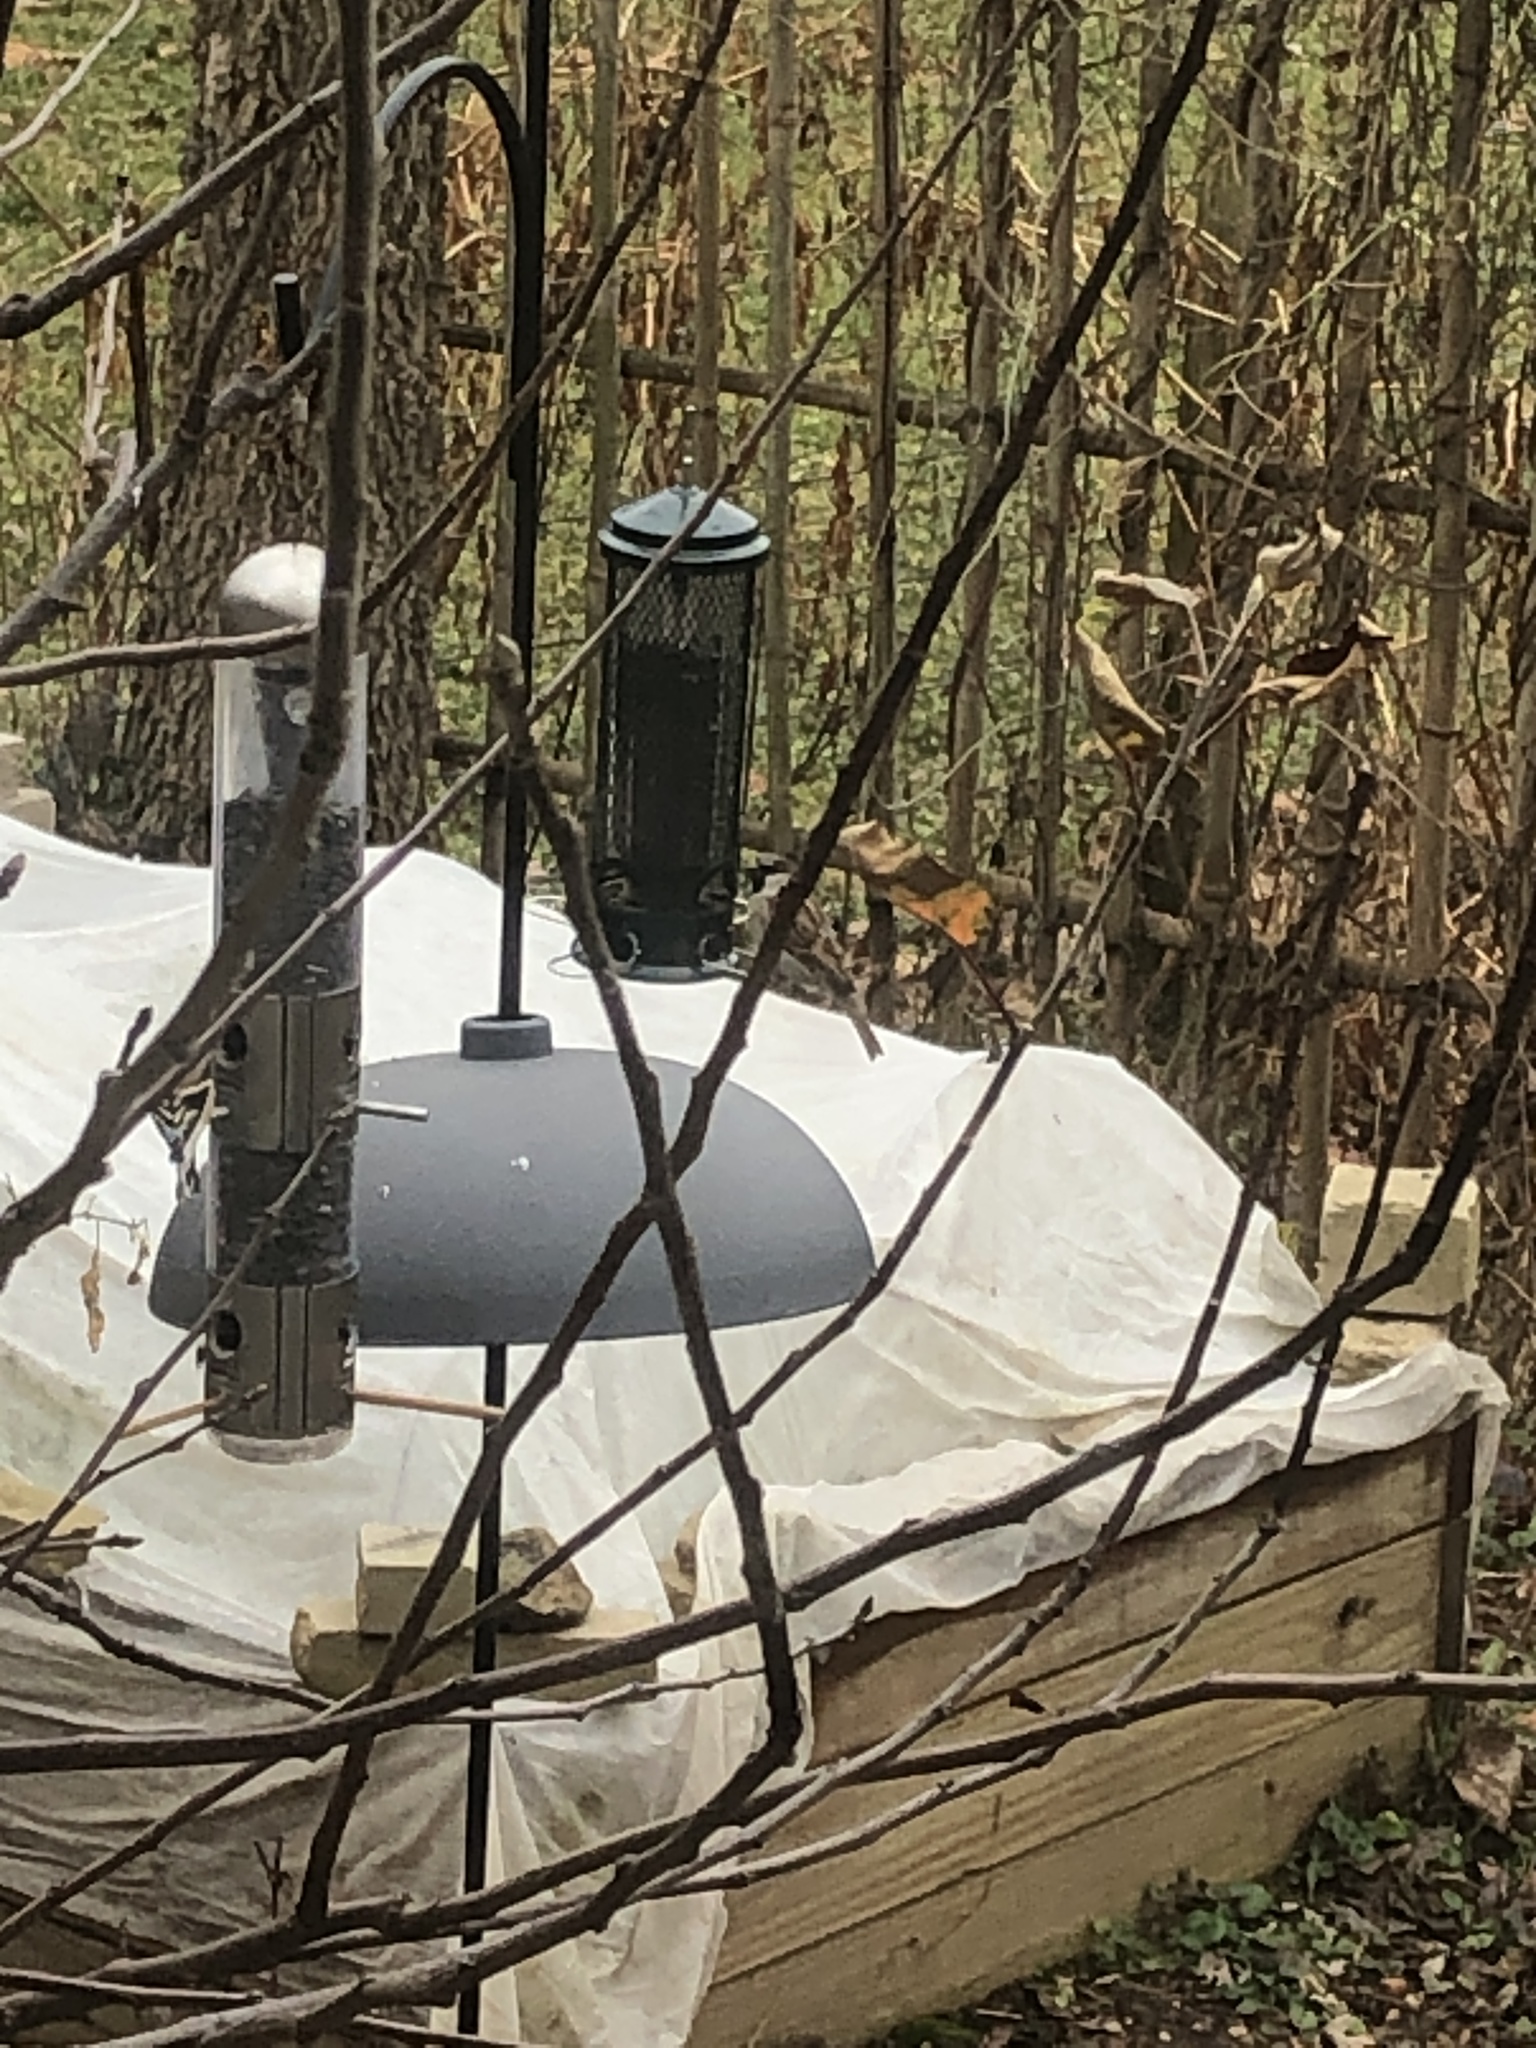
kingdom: Animalia
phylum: Chordata
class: Aves
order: Passeriformes
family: Passeridae
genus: Passer
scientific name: Passer domesticus
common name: House sparrow
